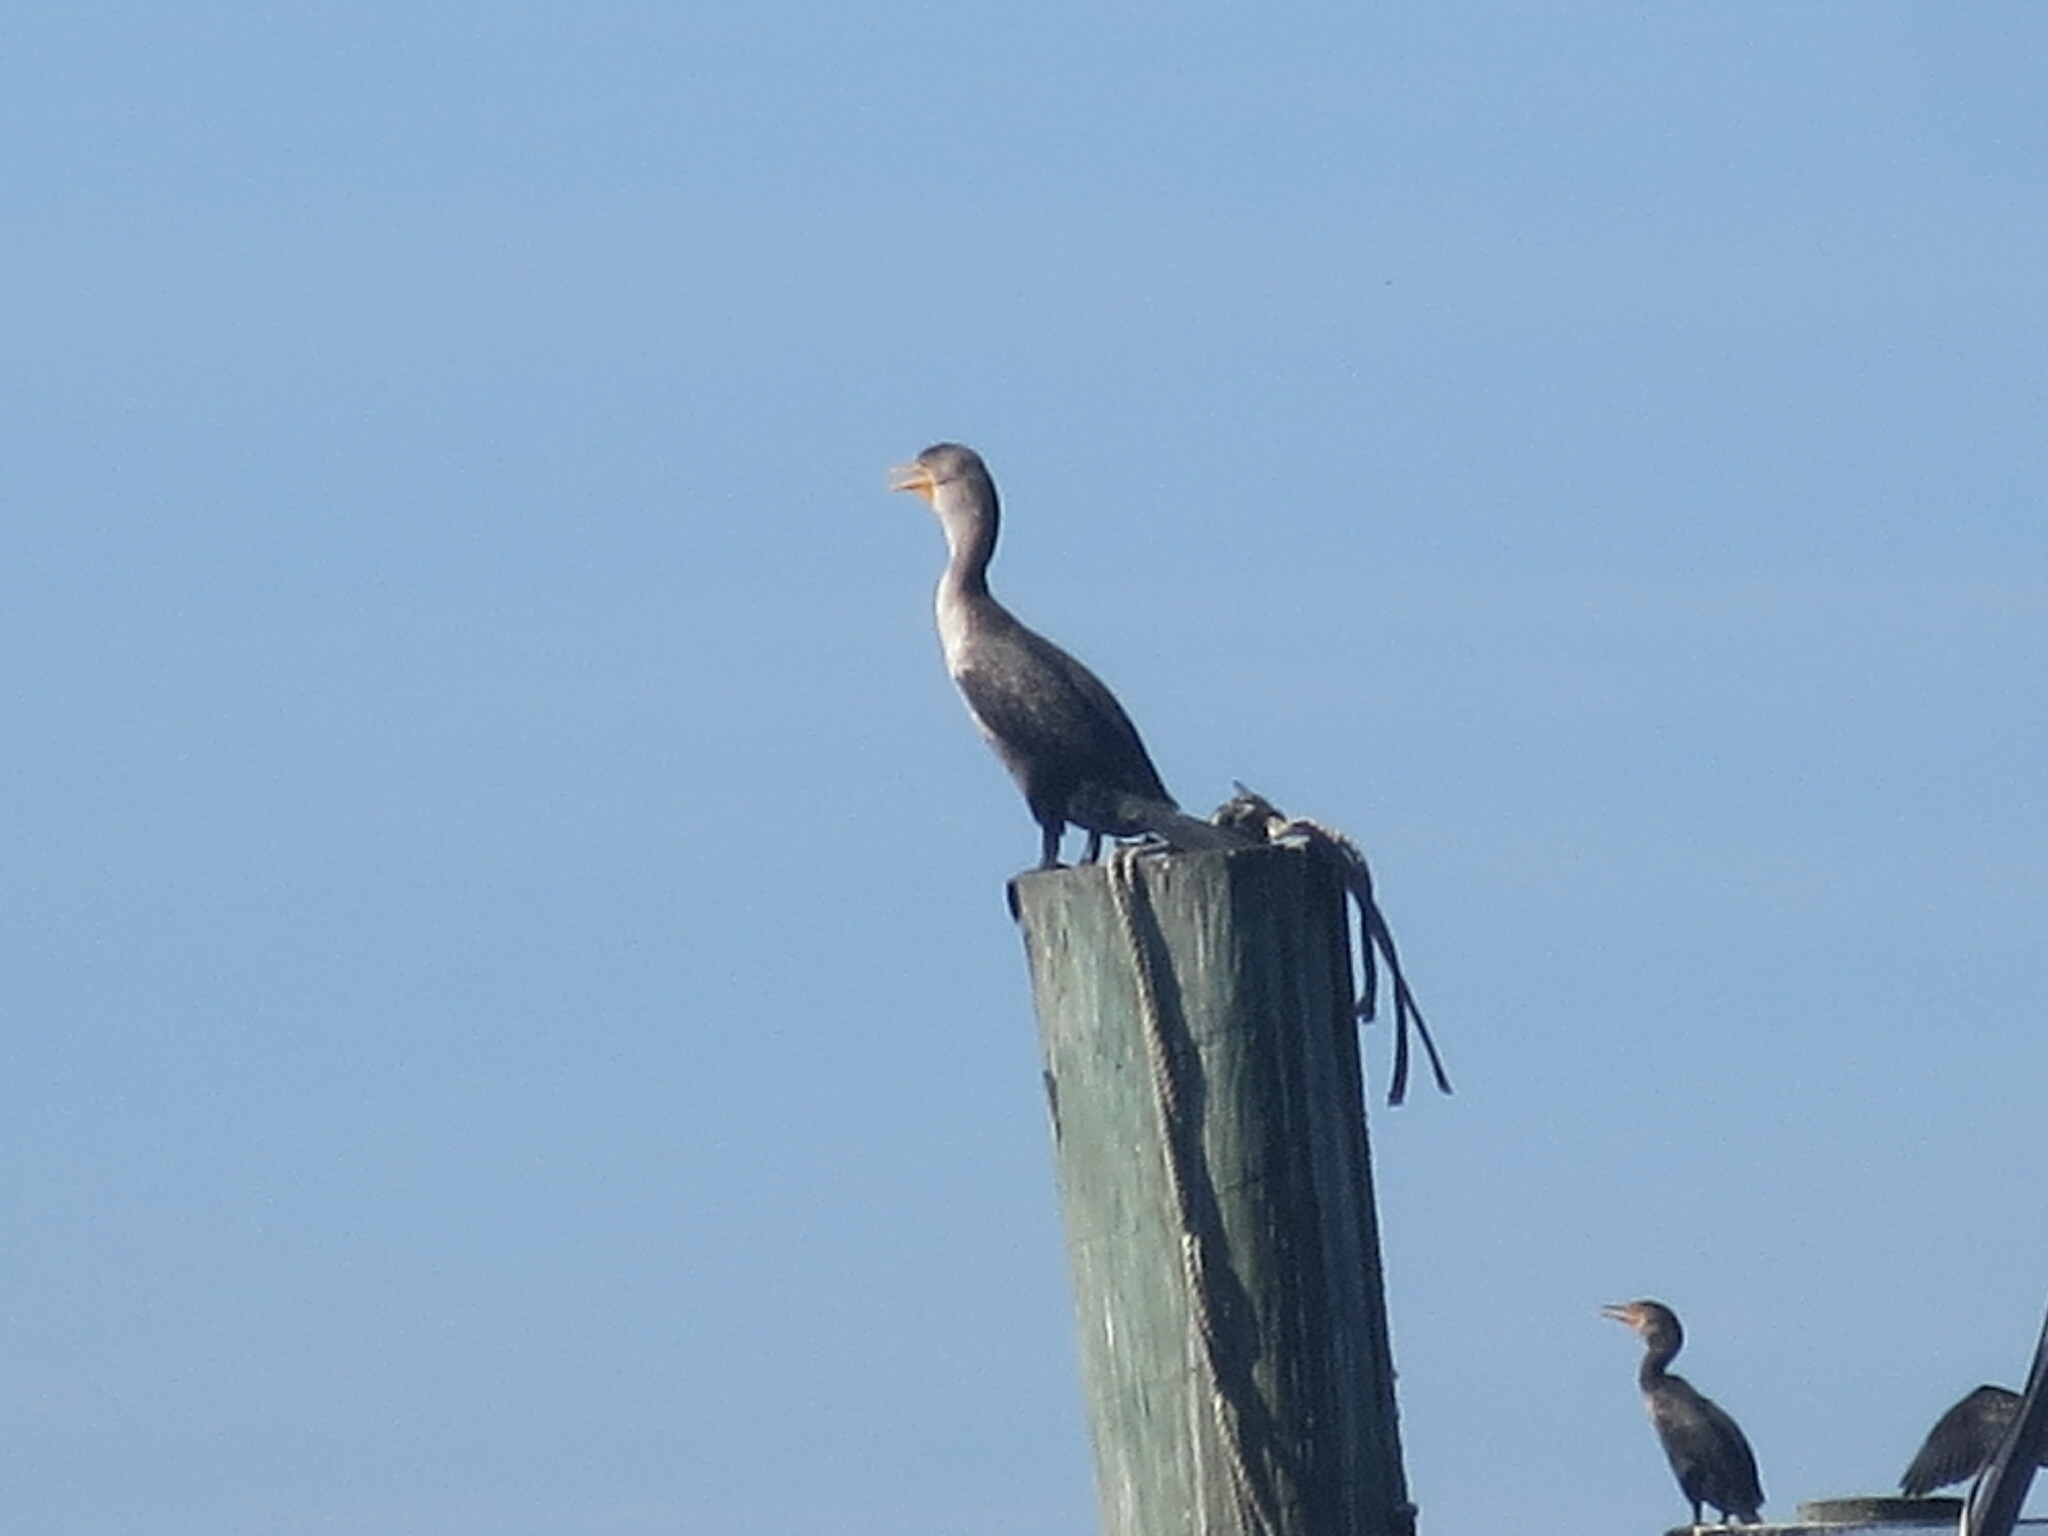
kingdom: Animalia
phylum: Chordata
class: Aves
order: Suliformes
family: Phalacrocoracidae
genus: Phalacrocorax
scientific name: Phalacrocorax auritus
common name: Double-crested cormorant
